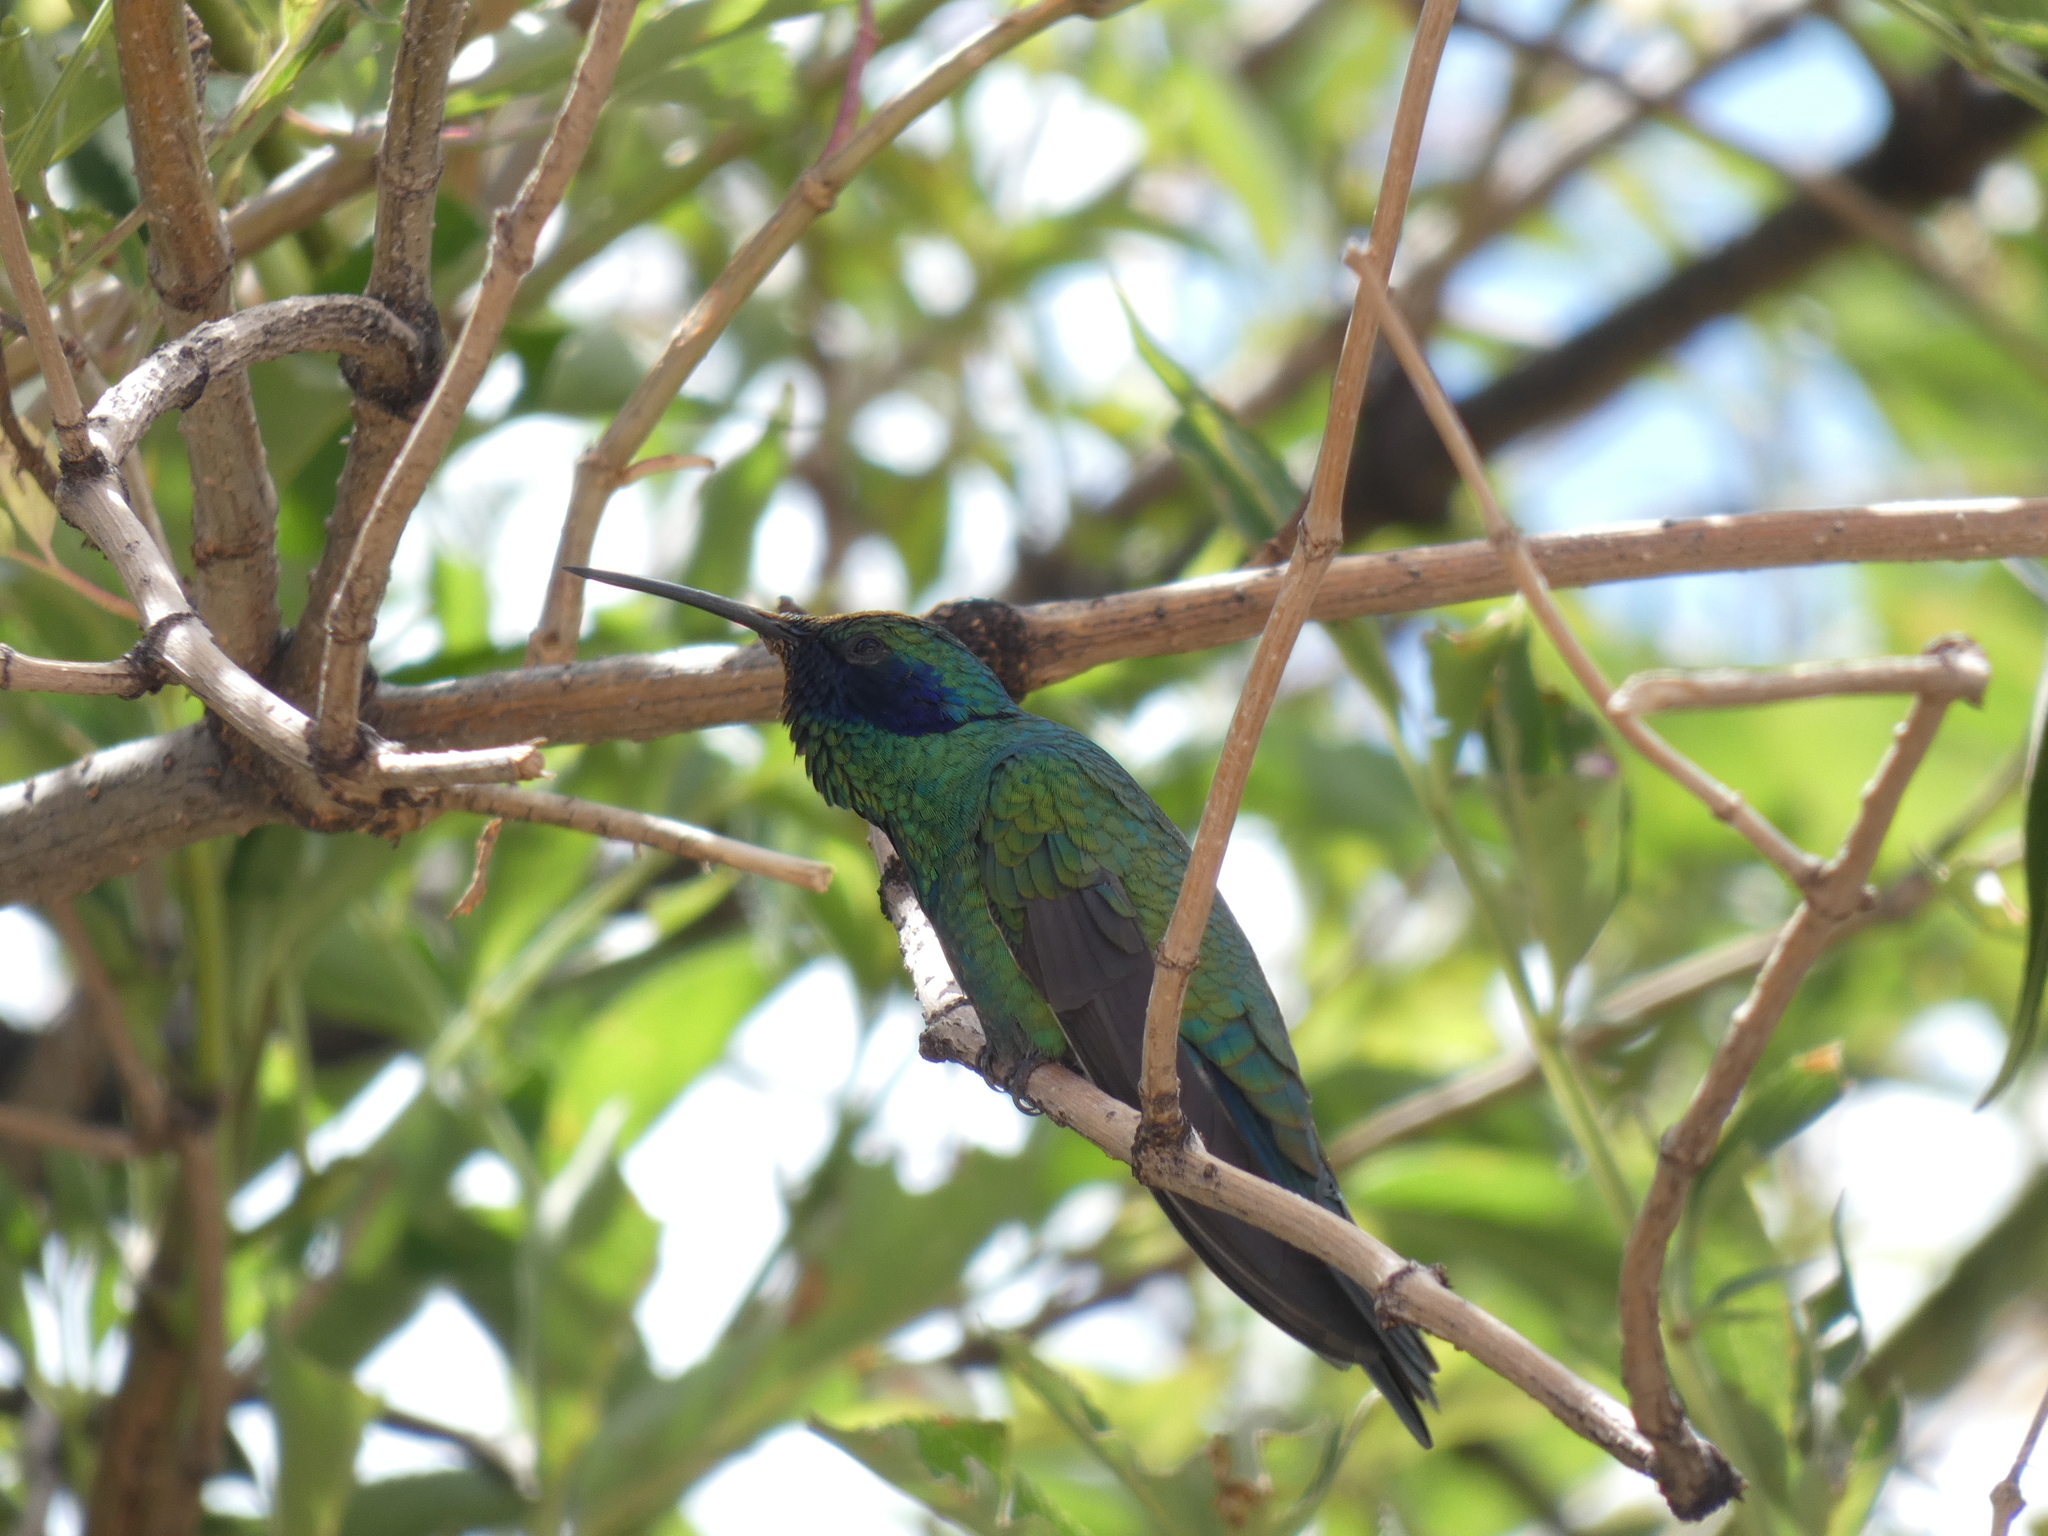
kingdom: Animalia
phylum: Chordata
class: Aves
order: Apodiformes
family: Trochilidae
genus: Colibri
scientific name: Colibri coruscans
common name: Sparkling violetear
